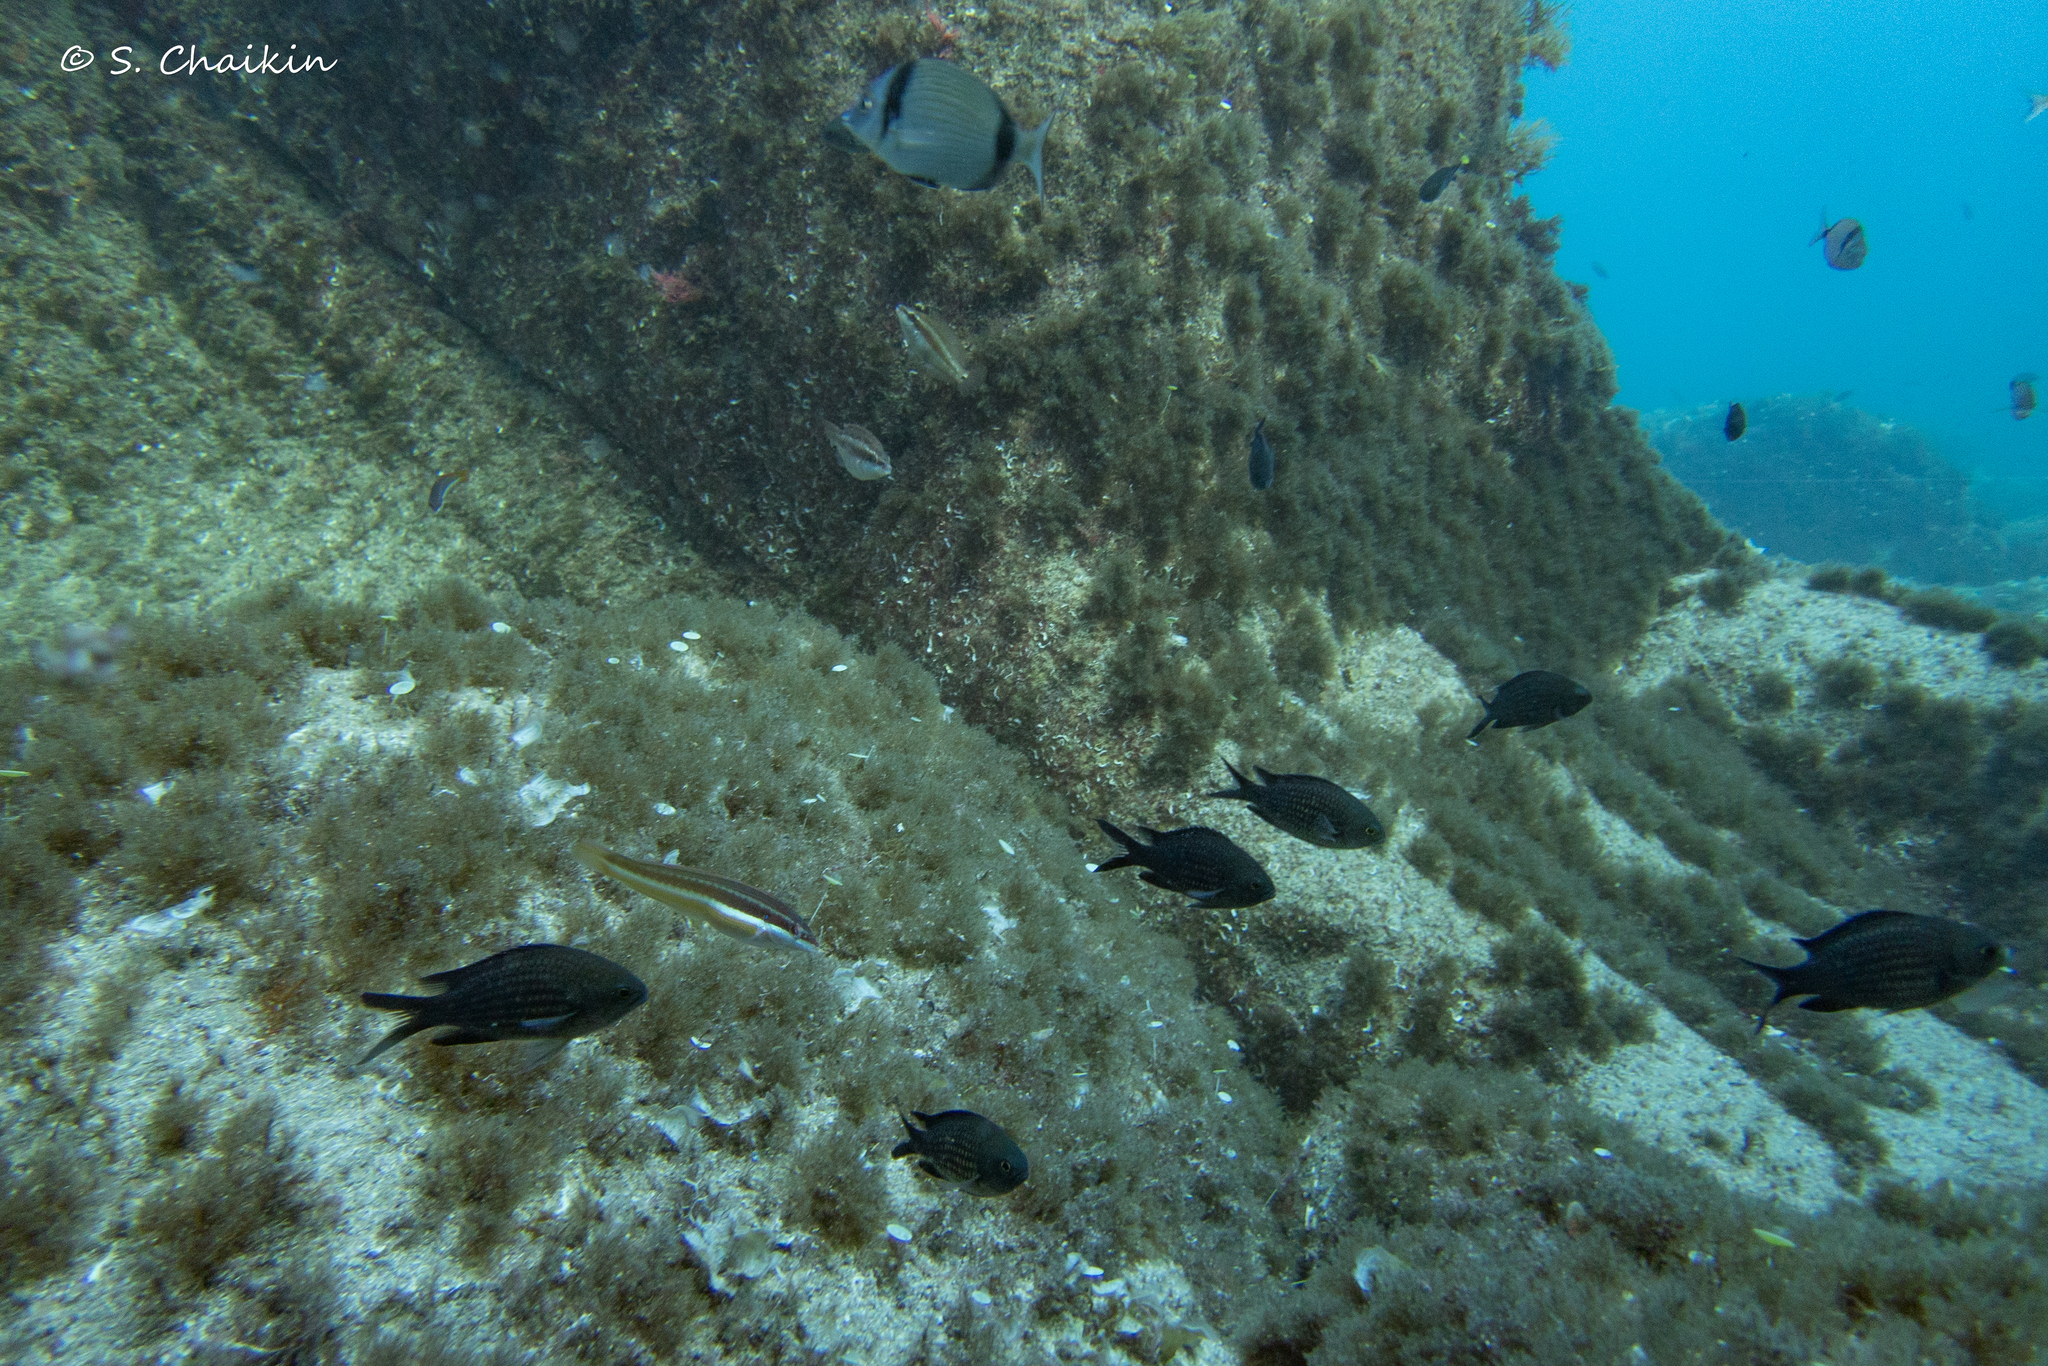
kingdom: Animalia
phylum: Chordata
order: Perciformes
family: Pomacentridae
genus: Chromis
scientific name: Chromis chromis
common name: Damselfish
